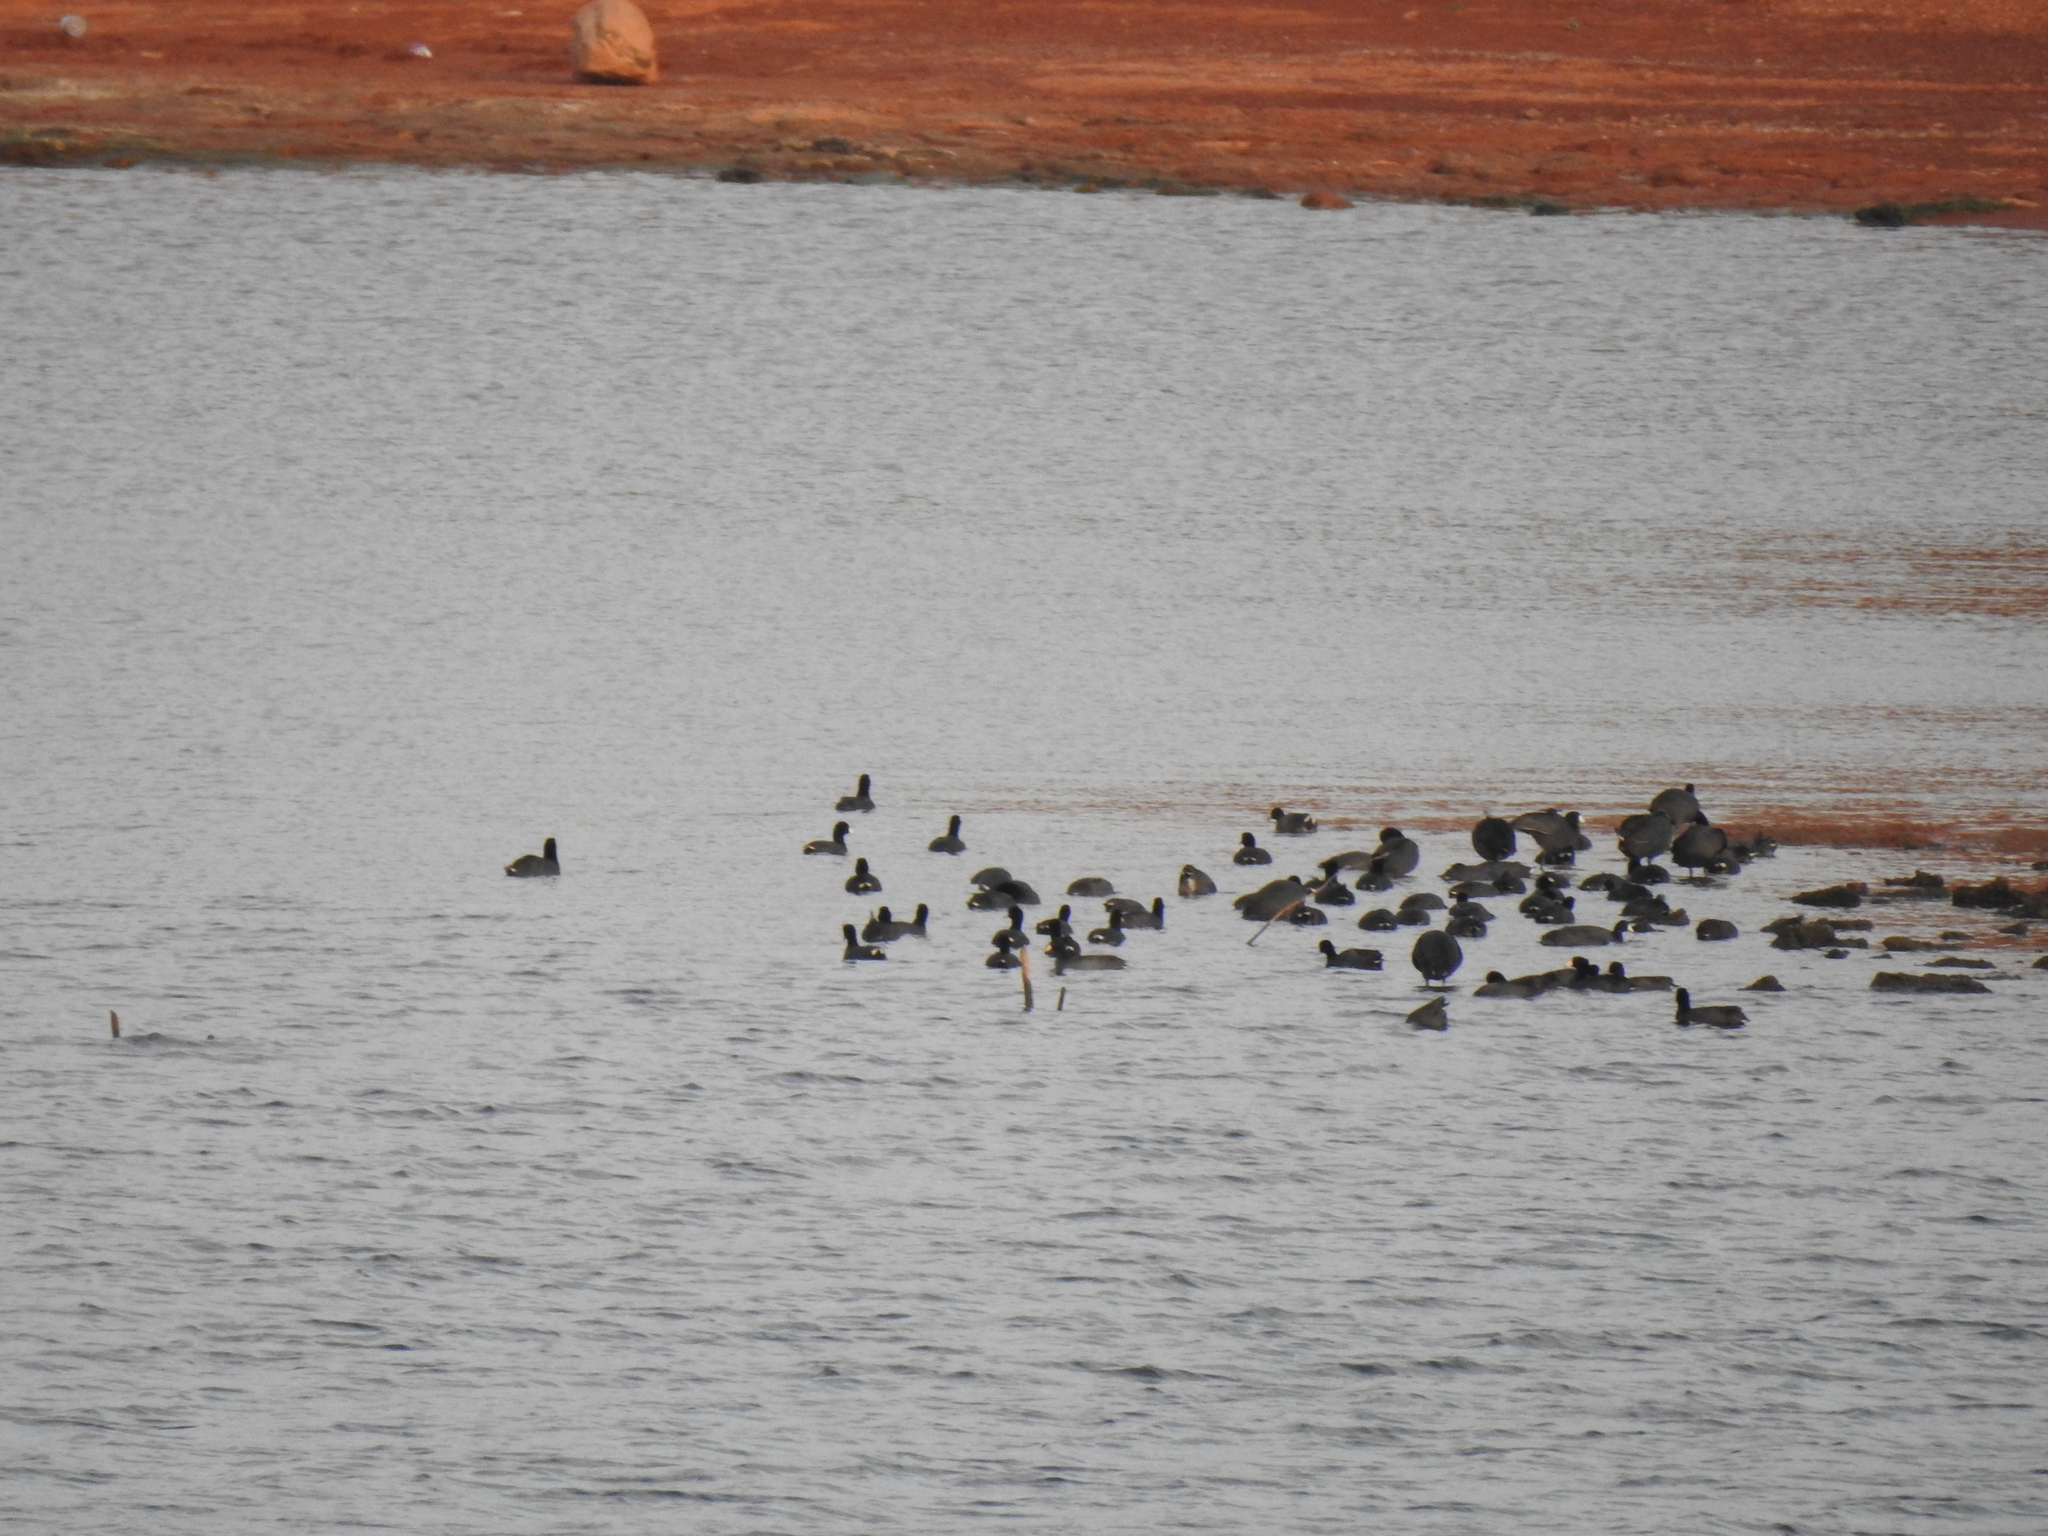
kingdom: Animalia
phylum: Chordata
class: Aves
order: Gruiformes
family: Rallidae
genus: Fulica
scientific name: Fulica americana
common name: American coot
